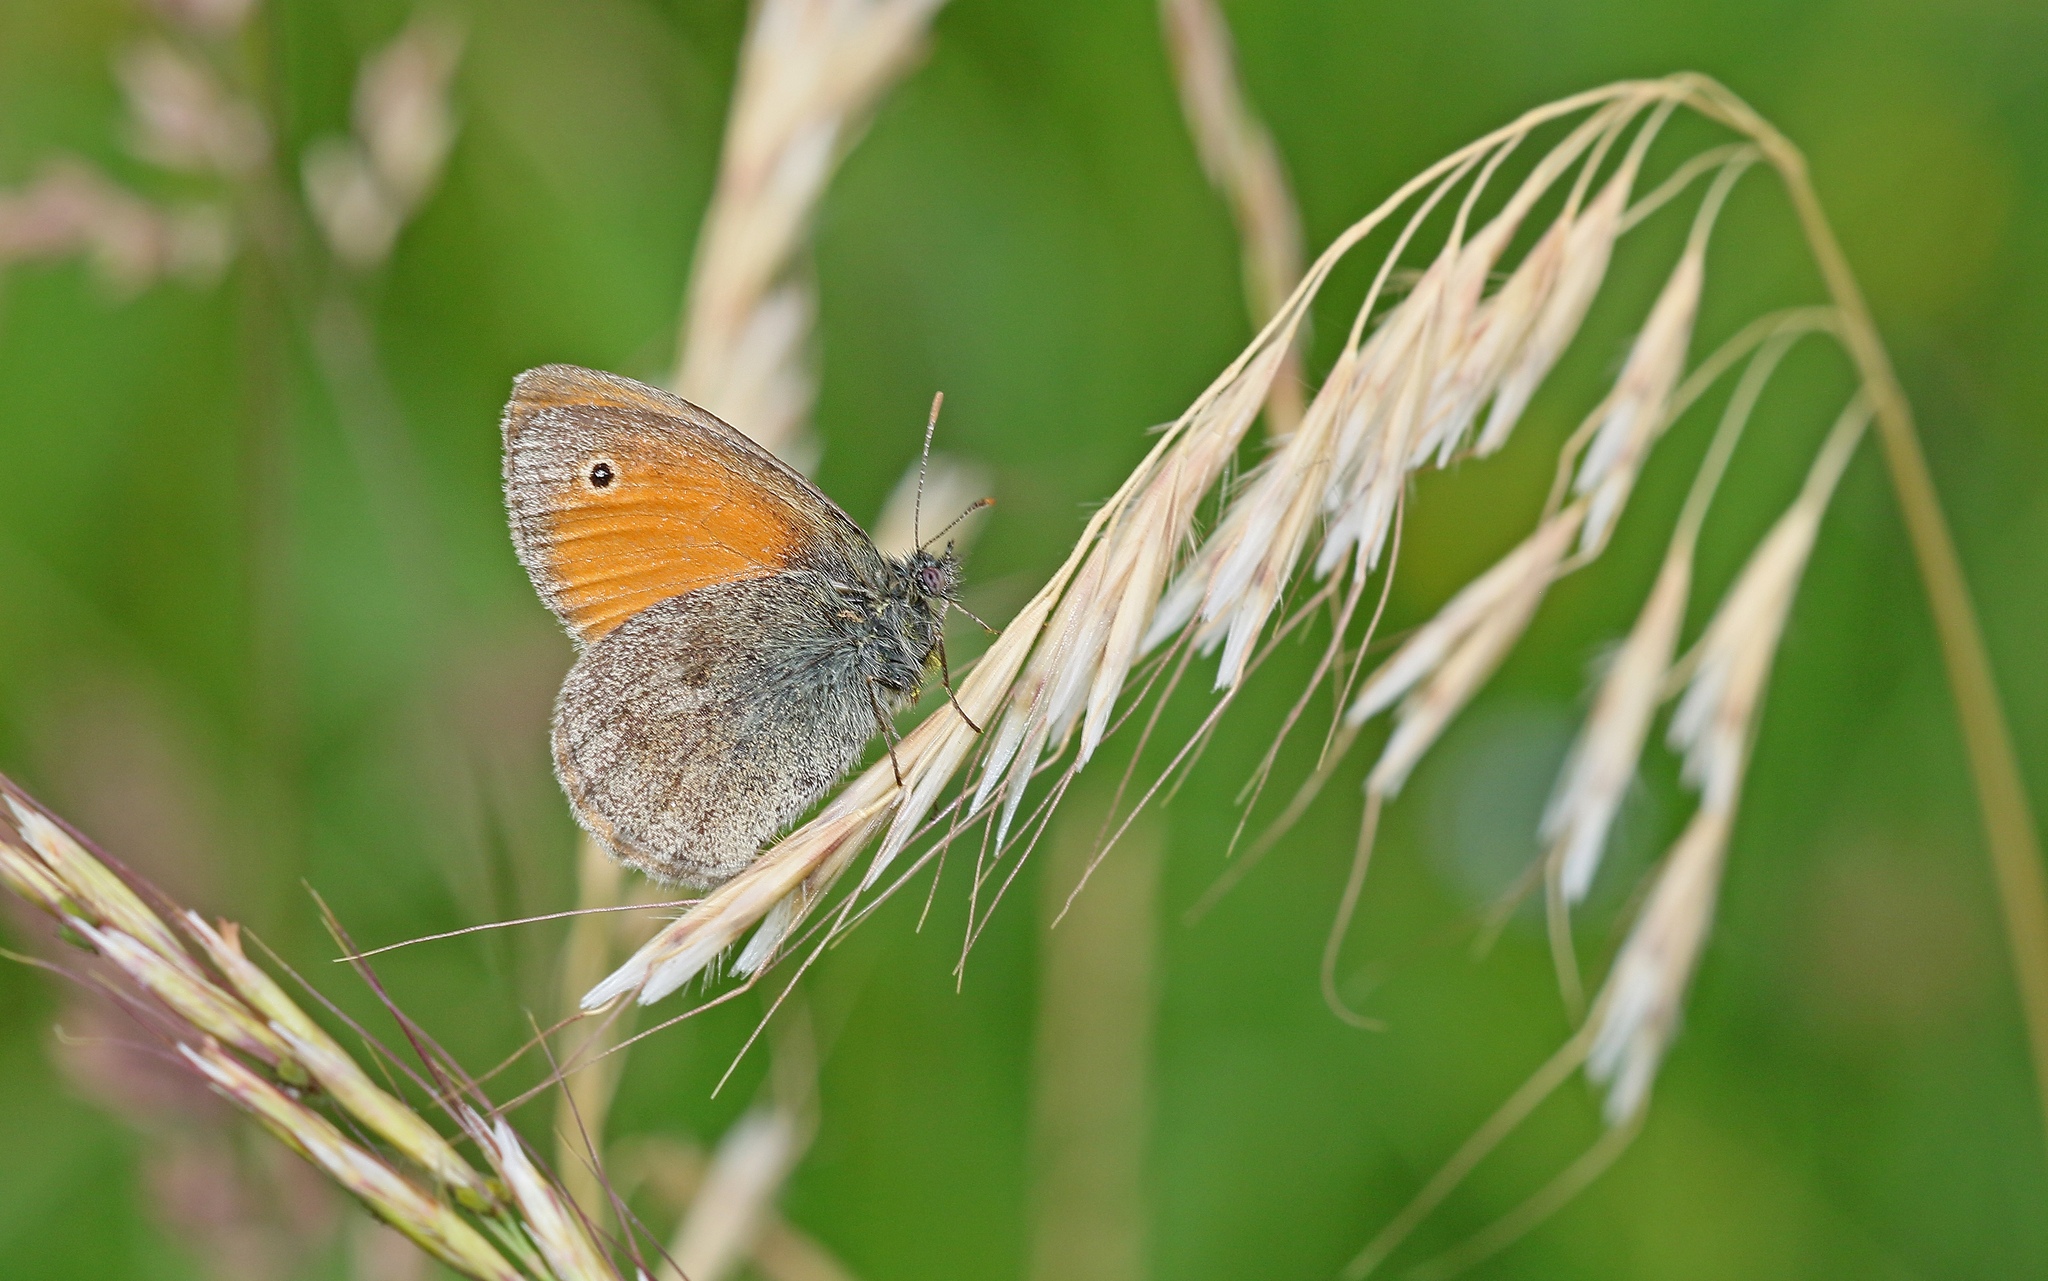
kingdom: Animalia
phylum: Arthropoda
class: Insecta
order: Lepidoptera
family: Nymphalidae
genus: Coenonympha
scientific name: Coenonympha pamphilus
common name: Small heath
